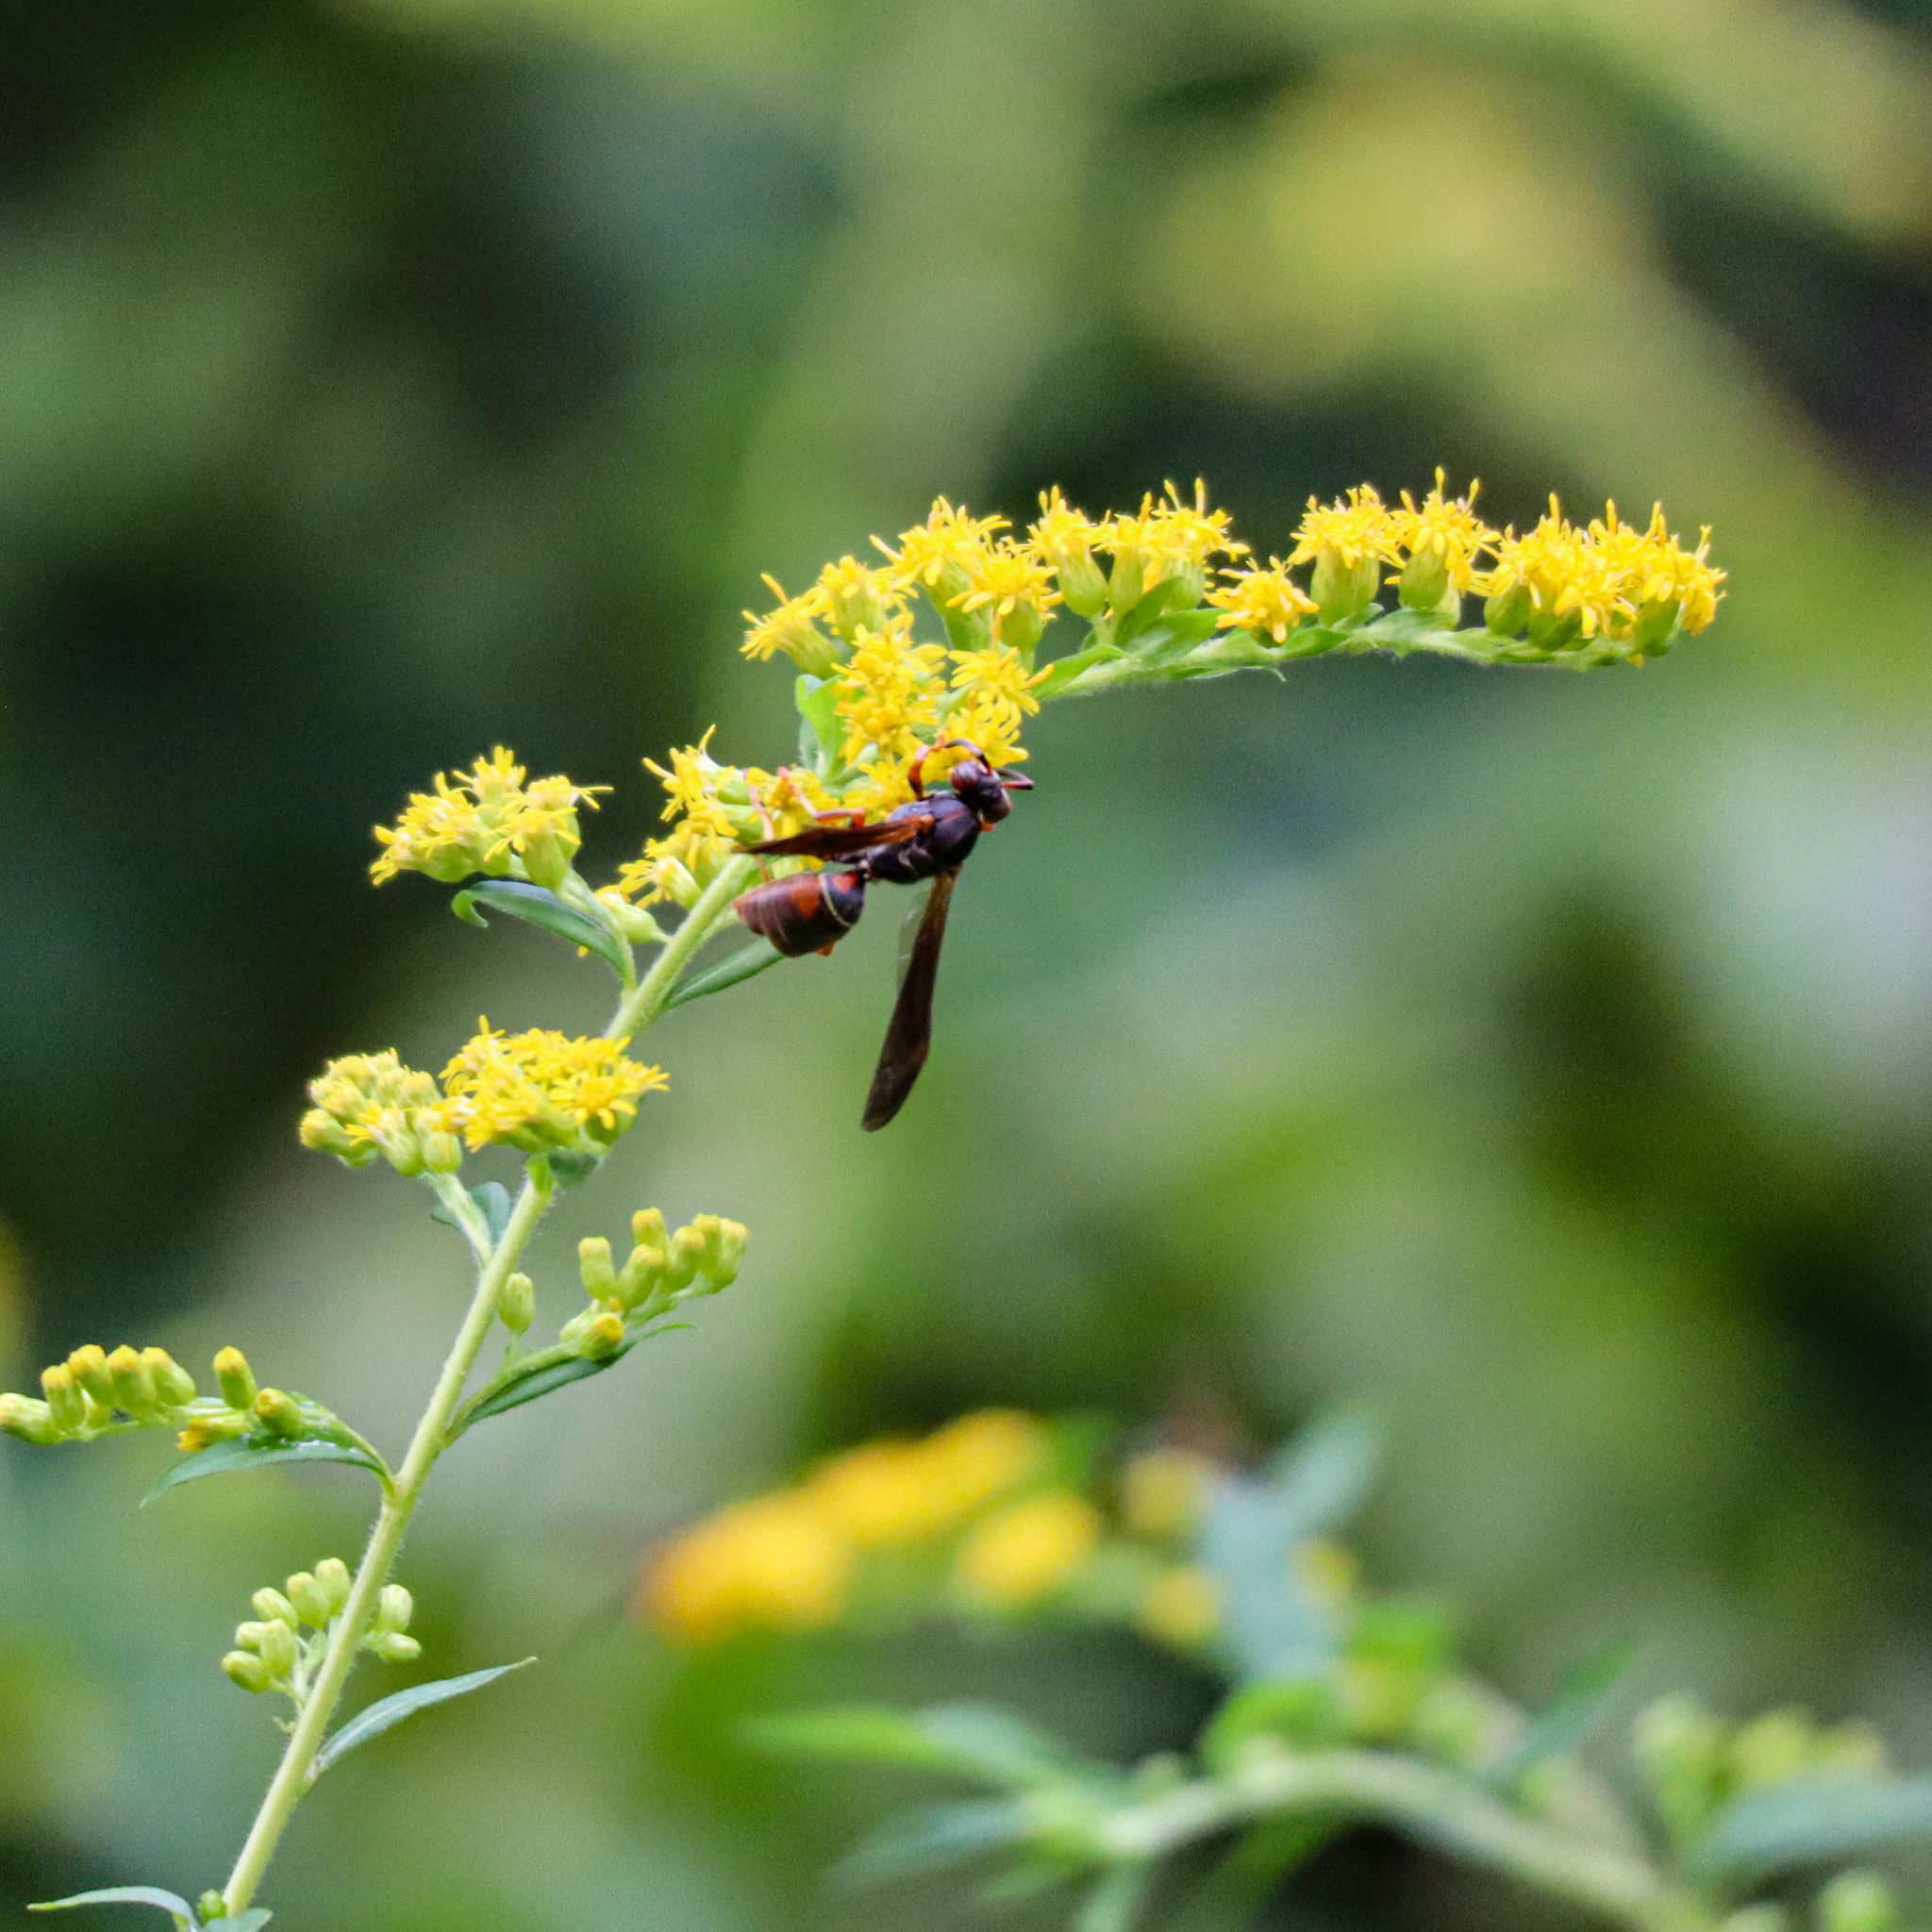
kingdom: Animalia
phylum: Arthropoda
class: Insecta
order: Hymenoptera
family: Eumenidae
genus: Polistes
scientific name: Polistes fuscatus
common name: Dark paper wasp
